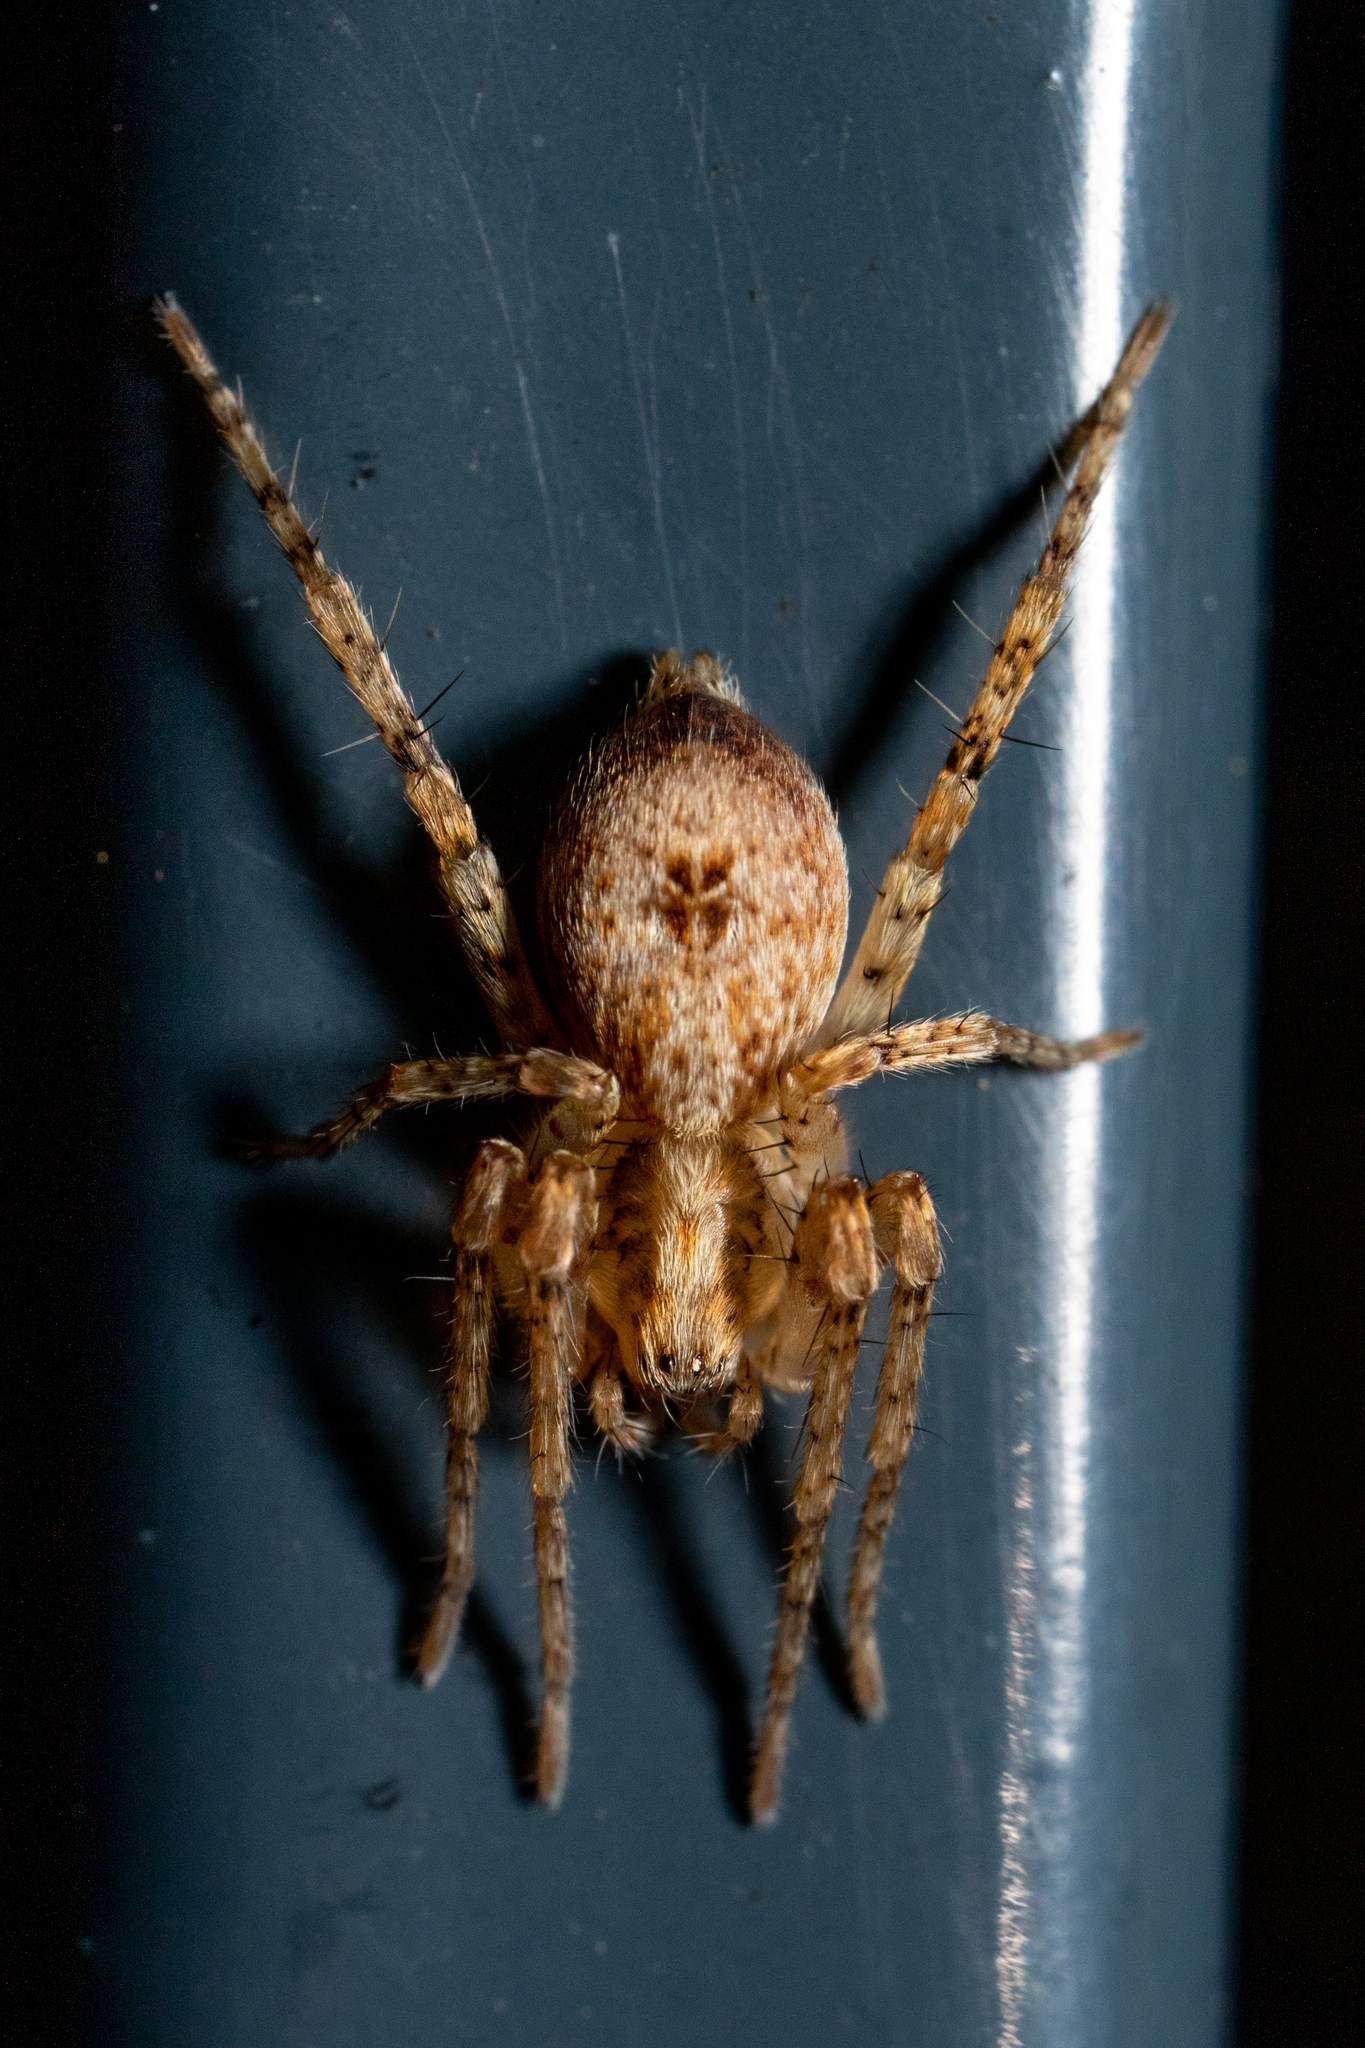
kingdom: Animalia
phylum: Arthropoda
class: Arachnida
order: Araneae
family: Anyphaenidae
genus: Anyphaena
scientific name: Anyphaena accentuata
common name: Buzzing spider
